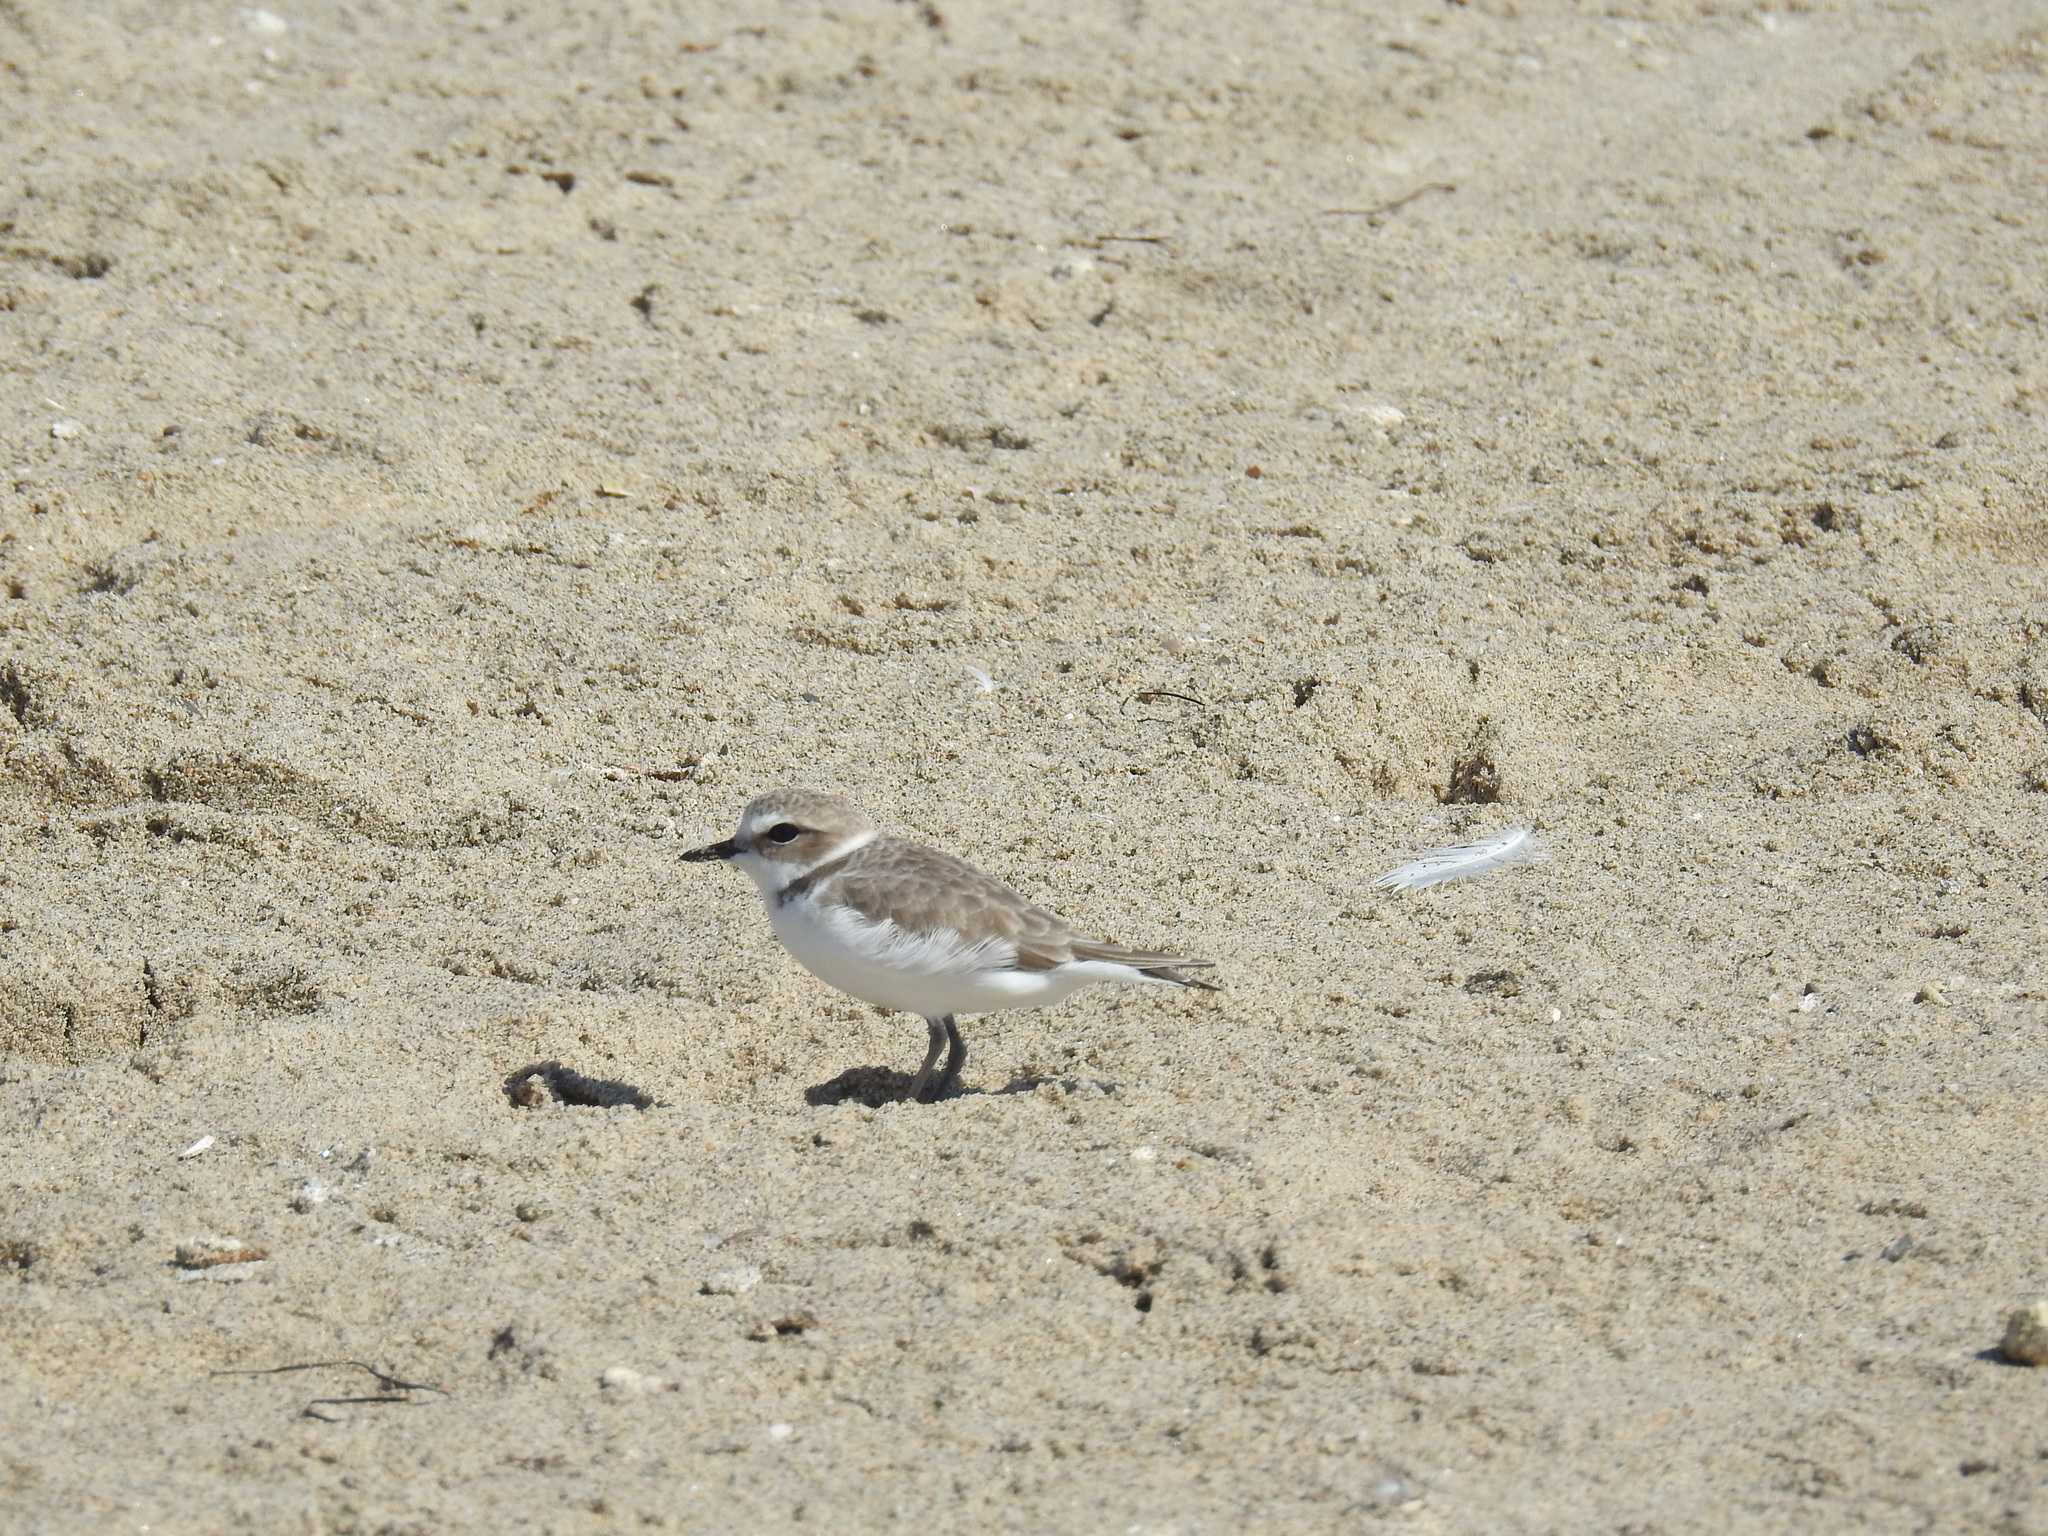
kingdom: Animalia
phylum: Chordata
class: Aves
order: Charadriiformes
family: Charadriidae
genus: Anarhynchus
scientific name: Anarhynchus
